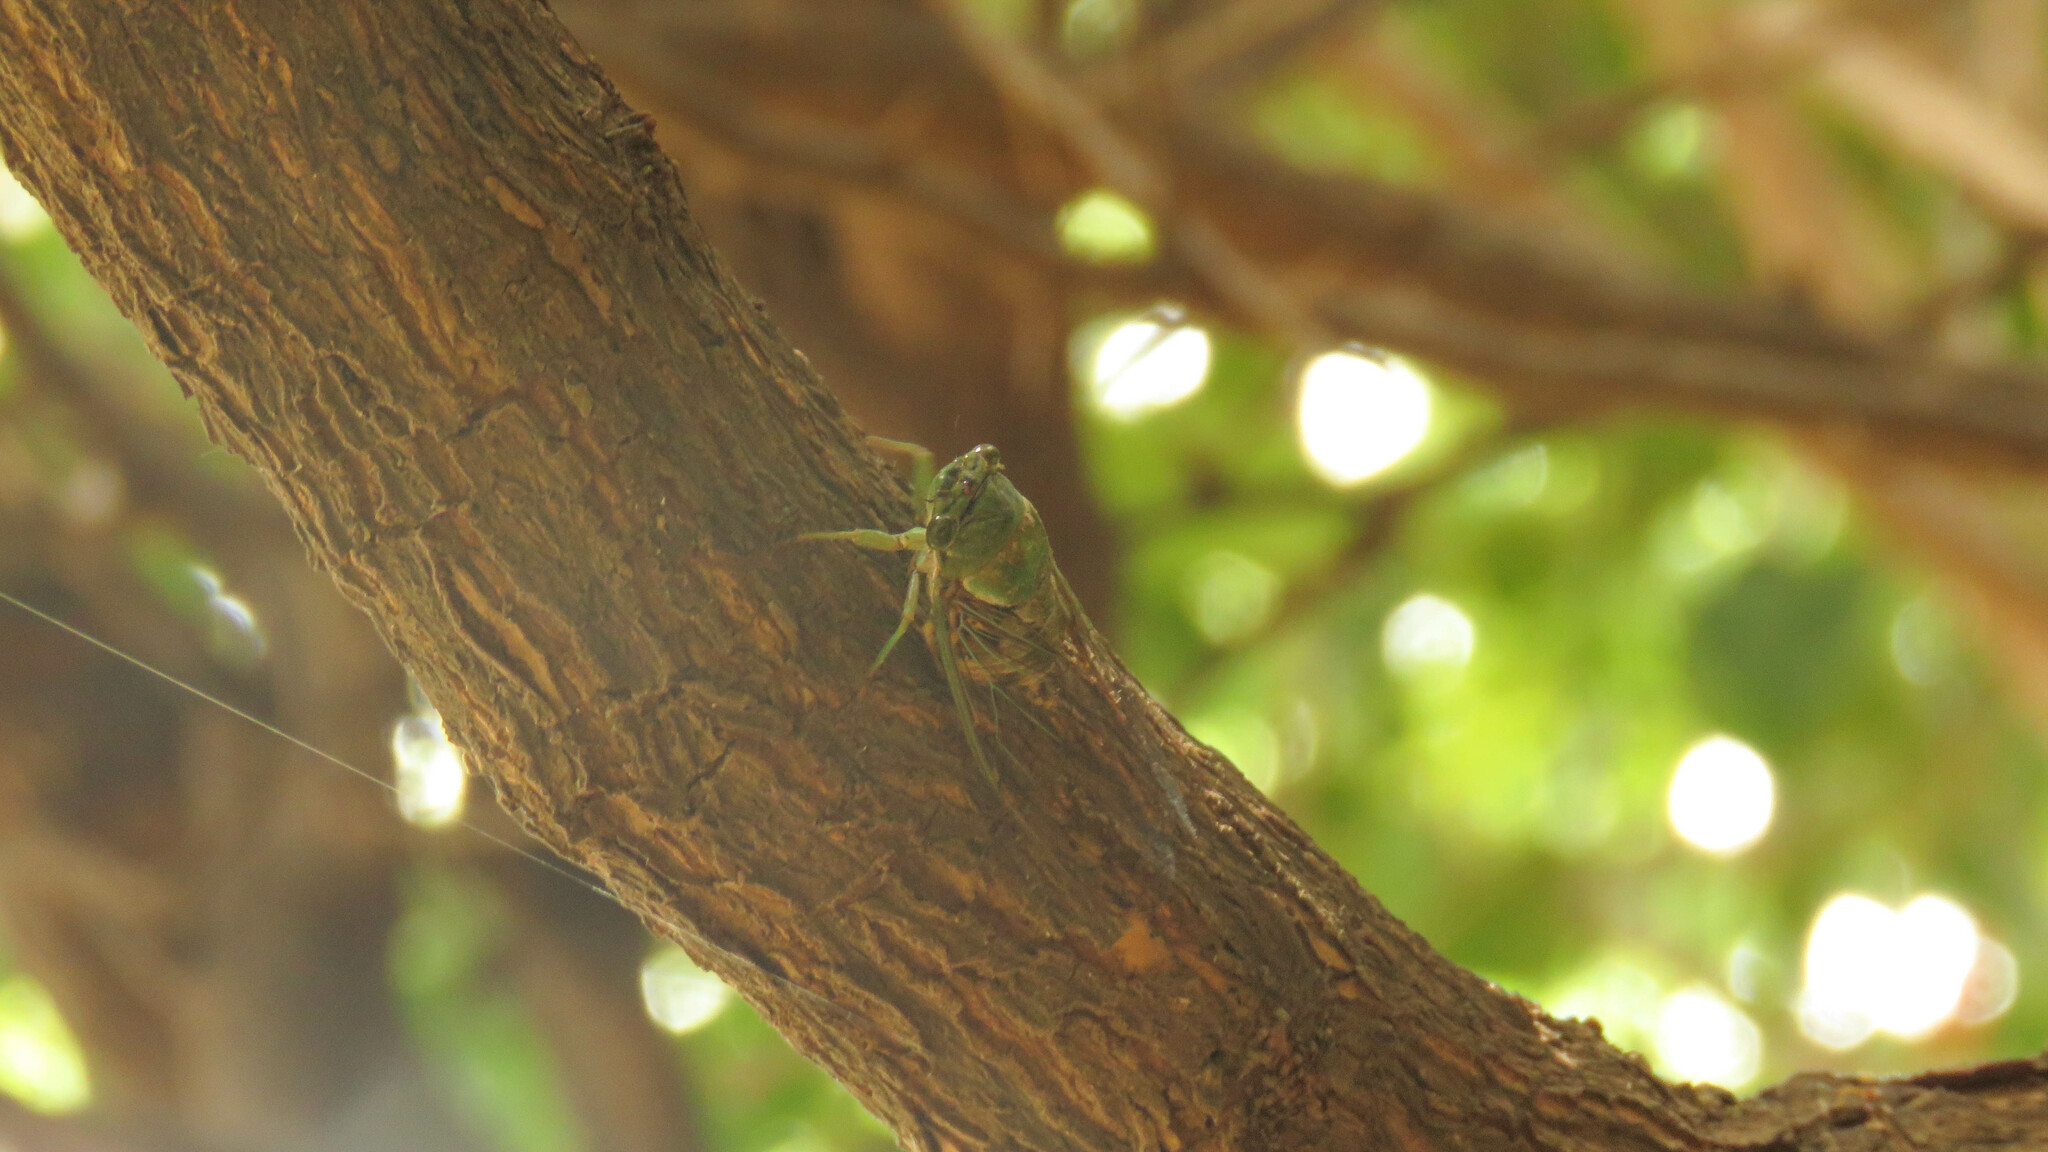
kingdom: Animalia
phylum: Arthropoda
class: Insecta
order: Hemiptera
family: Cicadidae
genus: Dorisiana
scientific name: Dorisiana metcalfi
